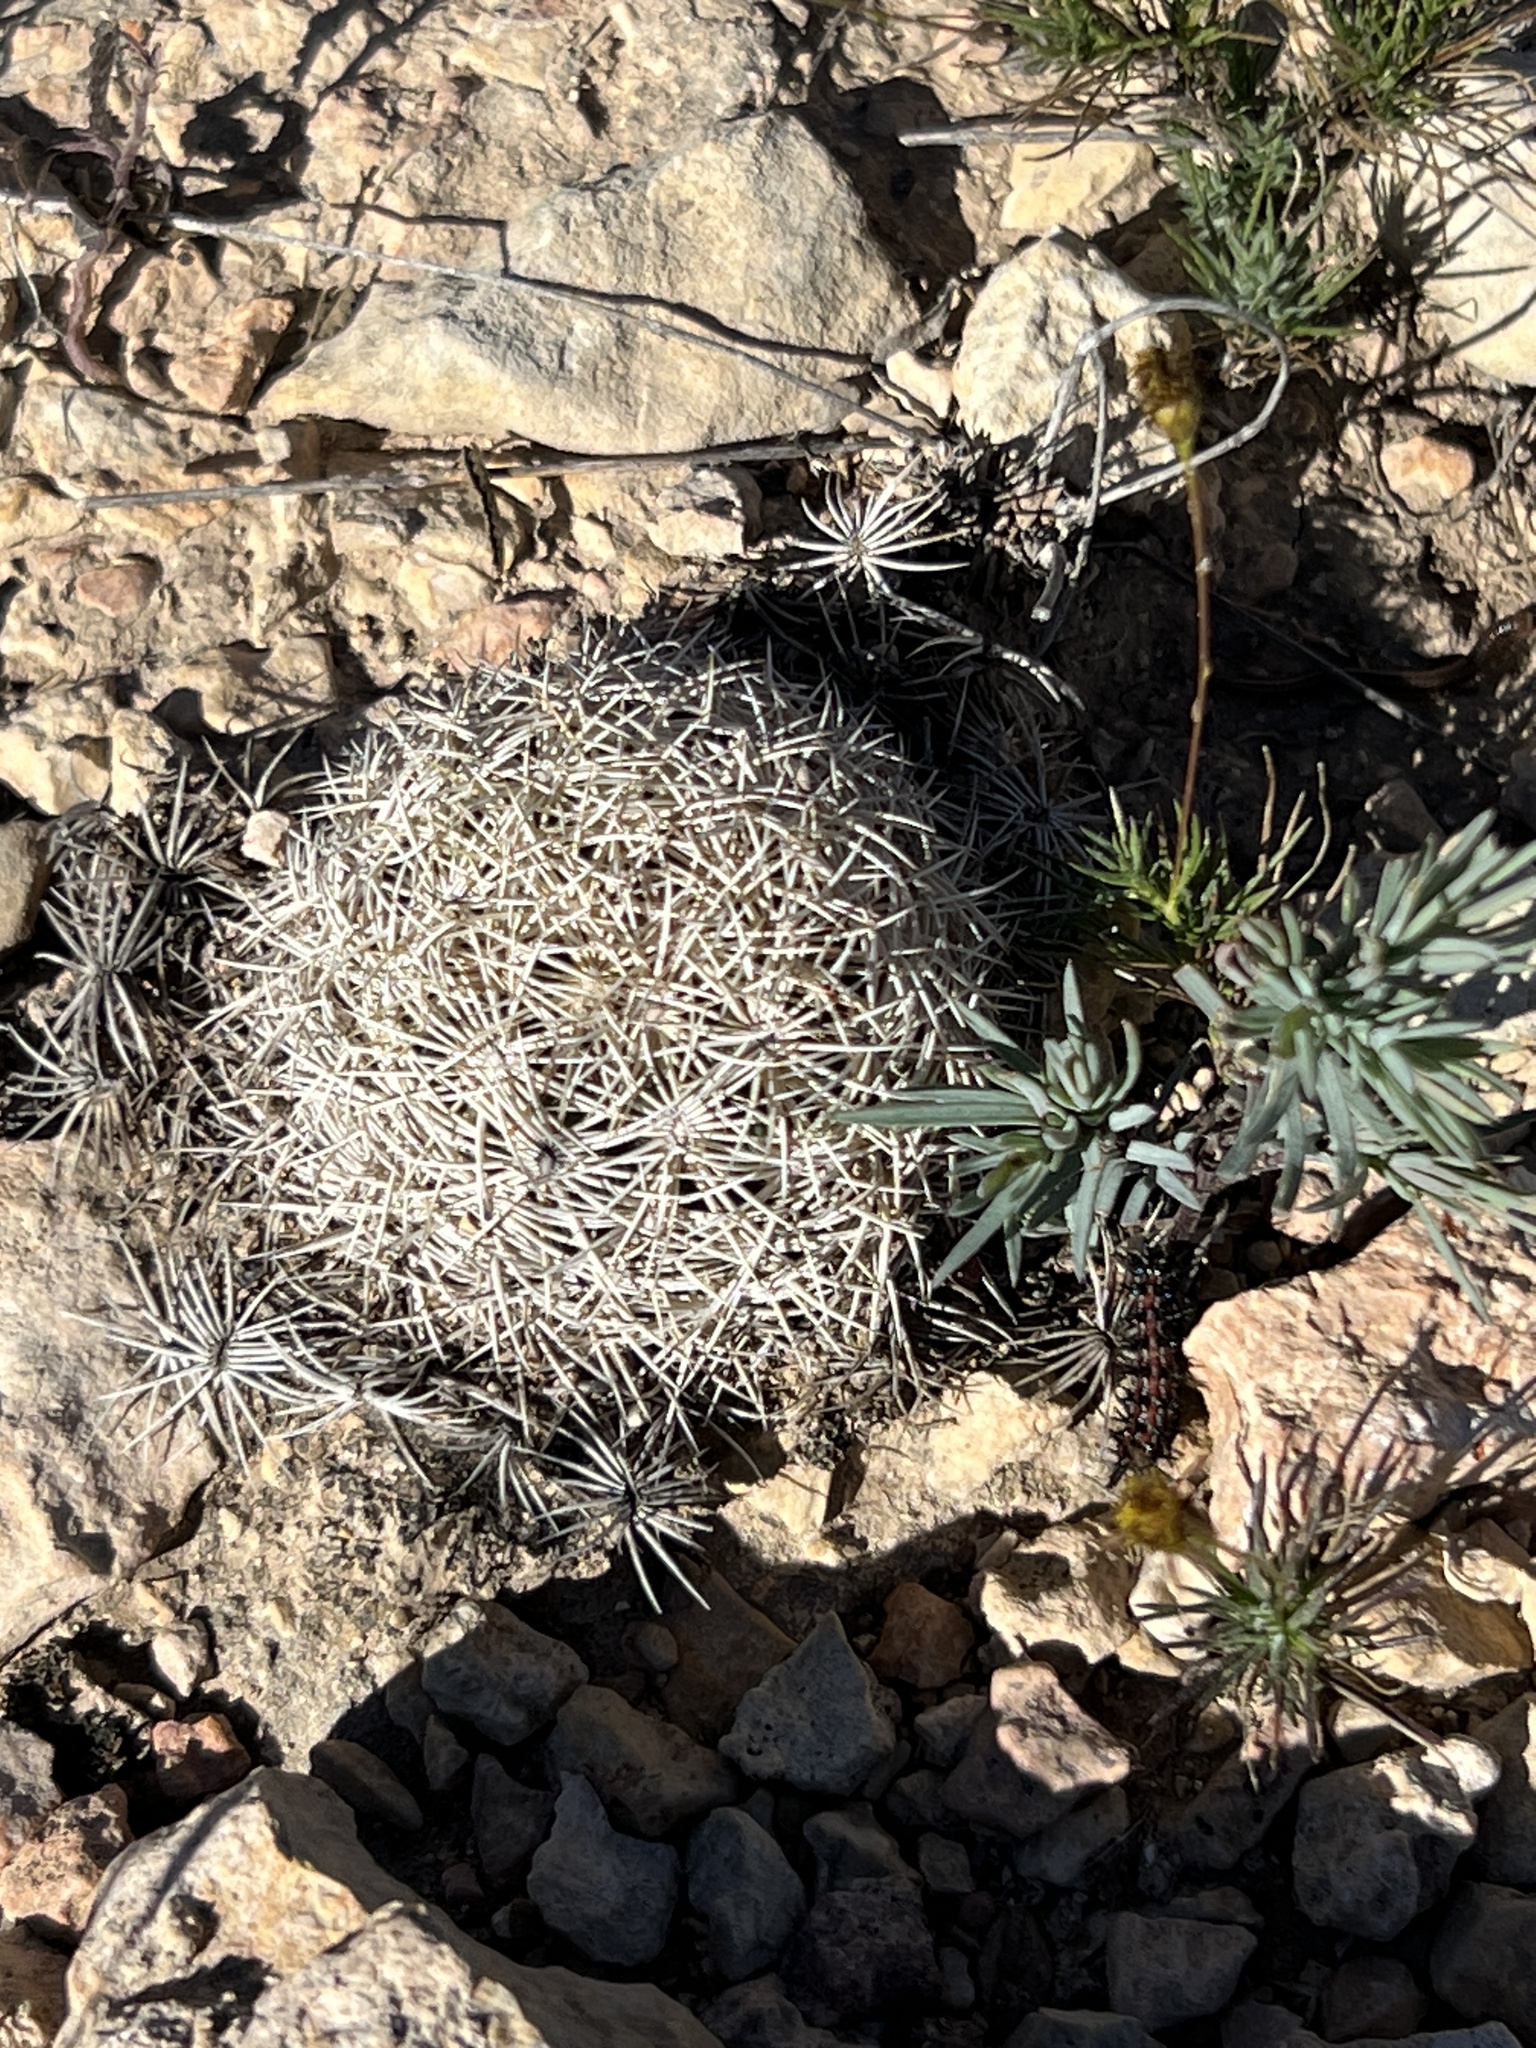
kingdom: Plantae
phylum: Tracheophyta
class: Magnoliopsida
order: Caryophyllales
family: Cactaceae
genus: Coryphantha
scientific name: Coryphantha echinus
